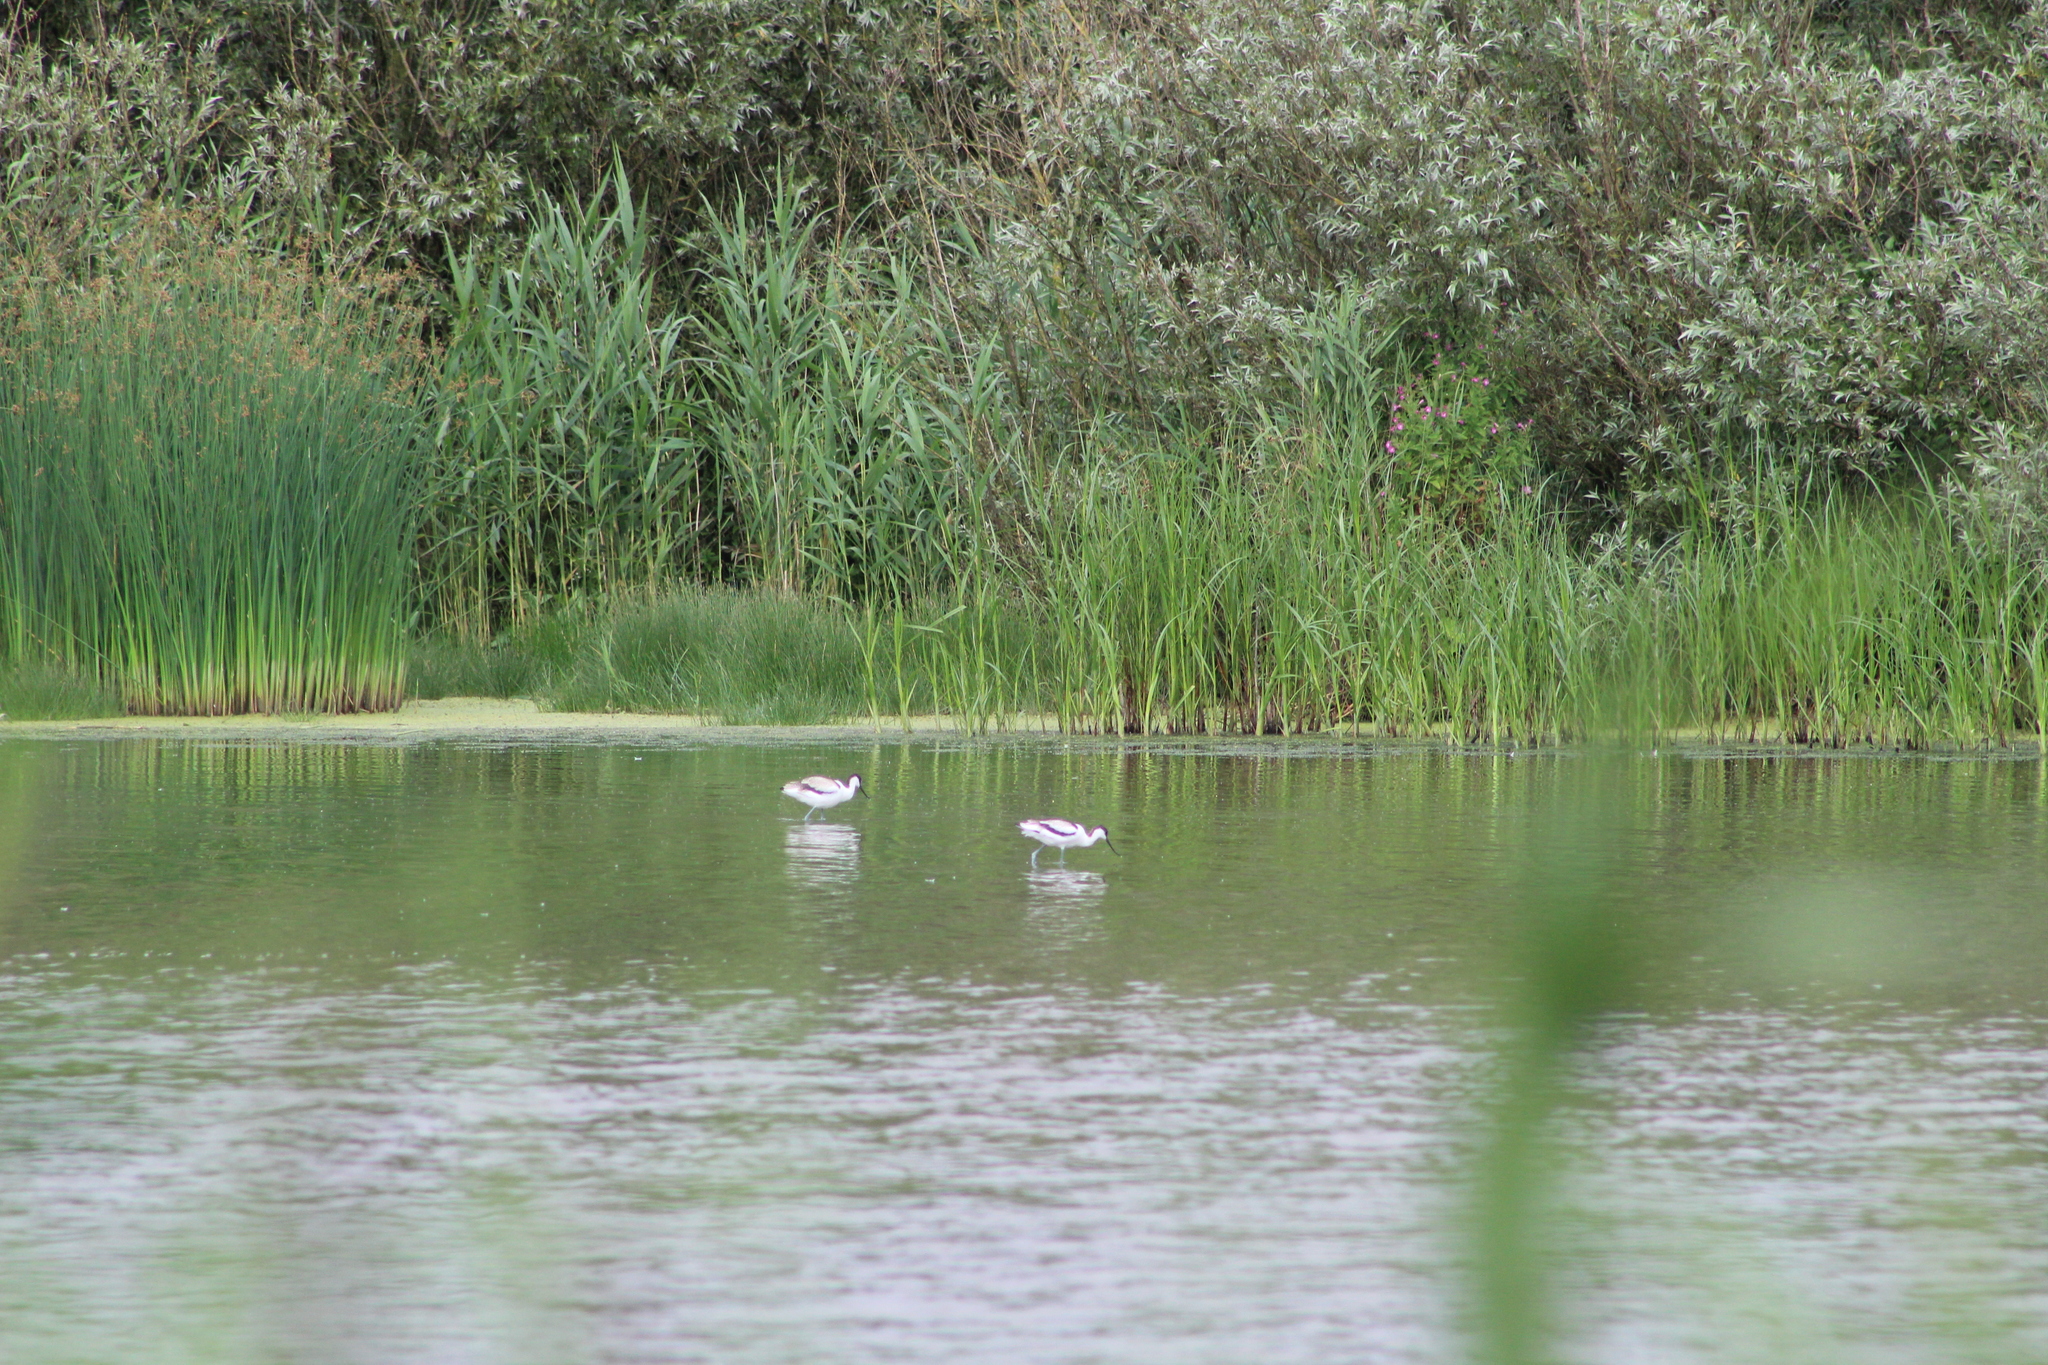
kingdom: Animalia
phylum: Chordata
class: Aves
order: Charadriiformes
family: Recurvirostridae
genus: Recurvirostra
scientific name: Recurvirostra avosetta
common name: Pied avocet
